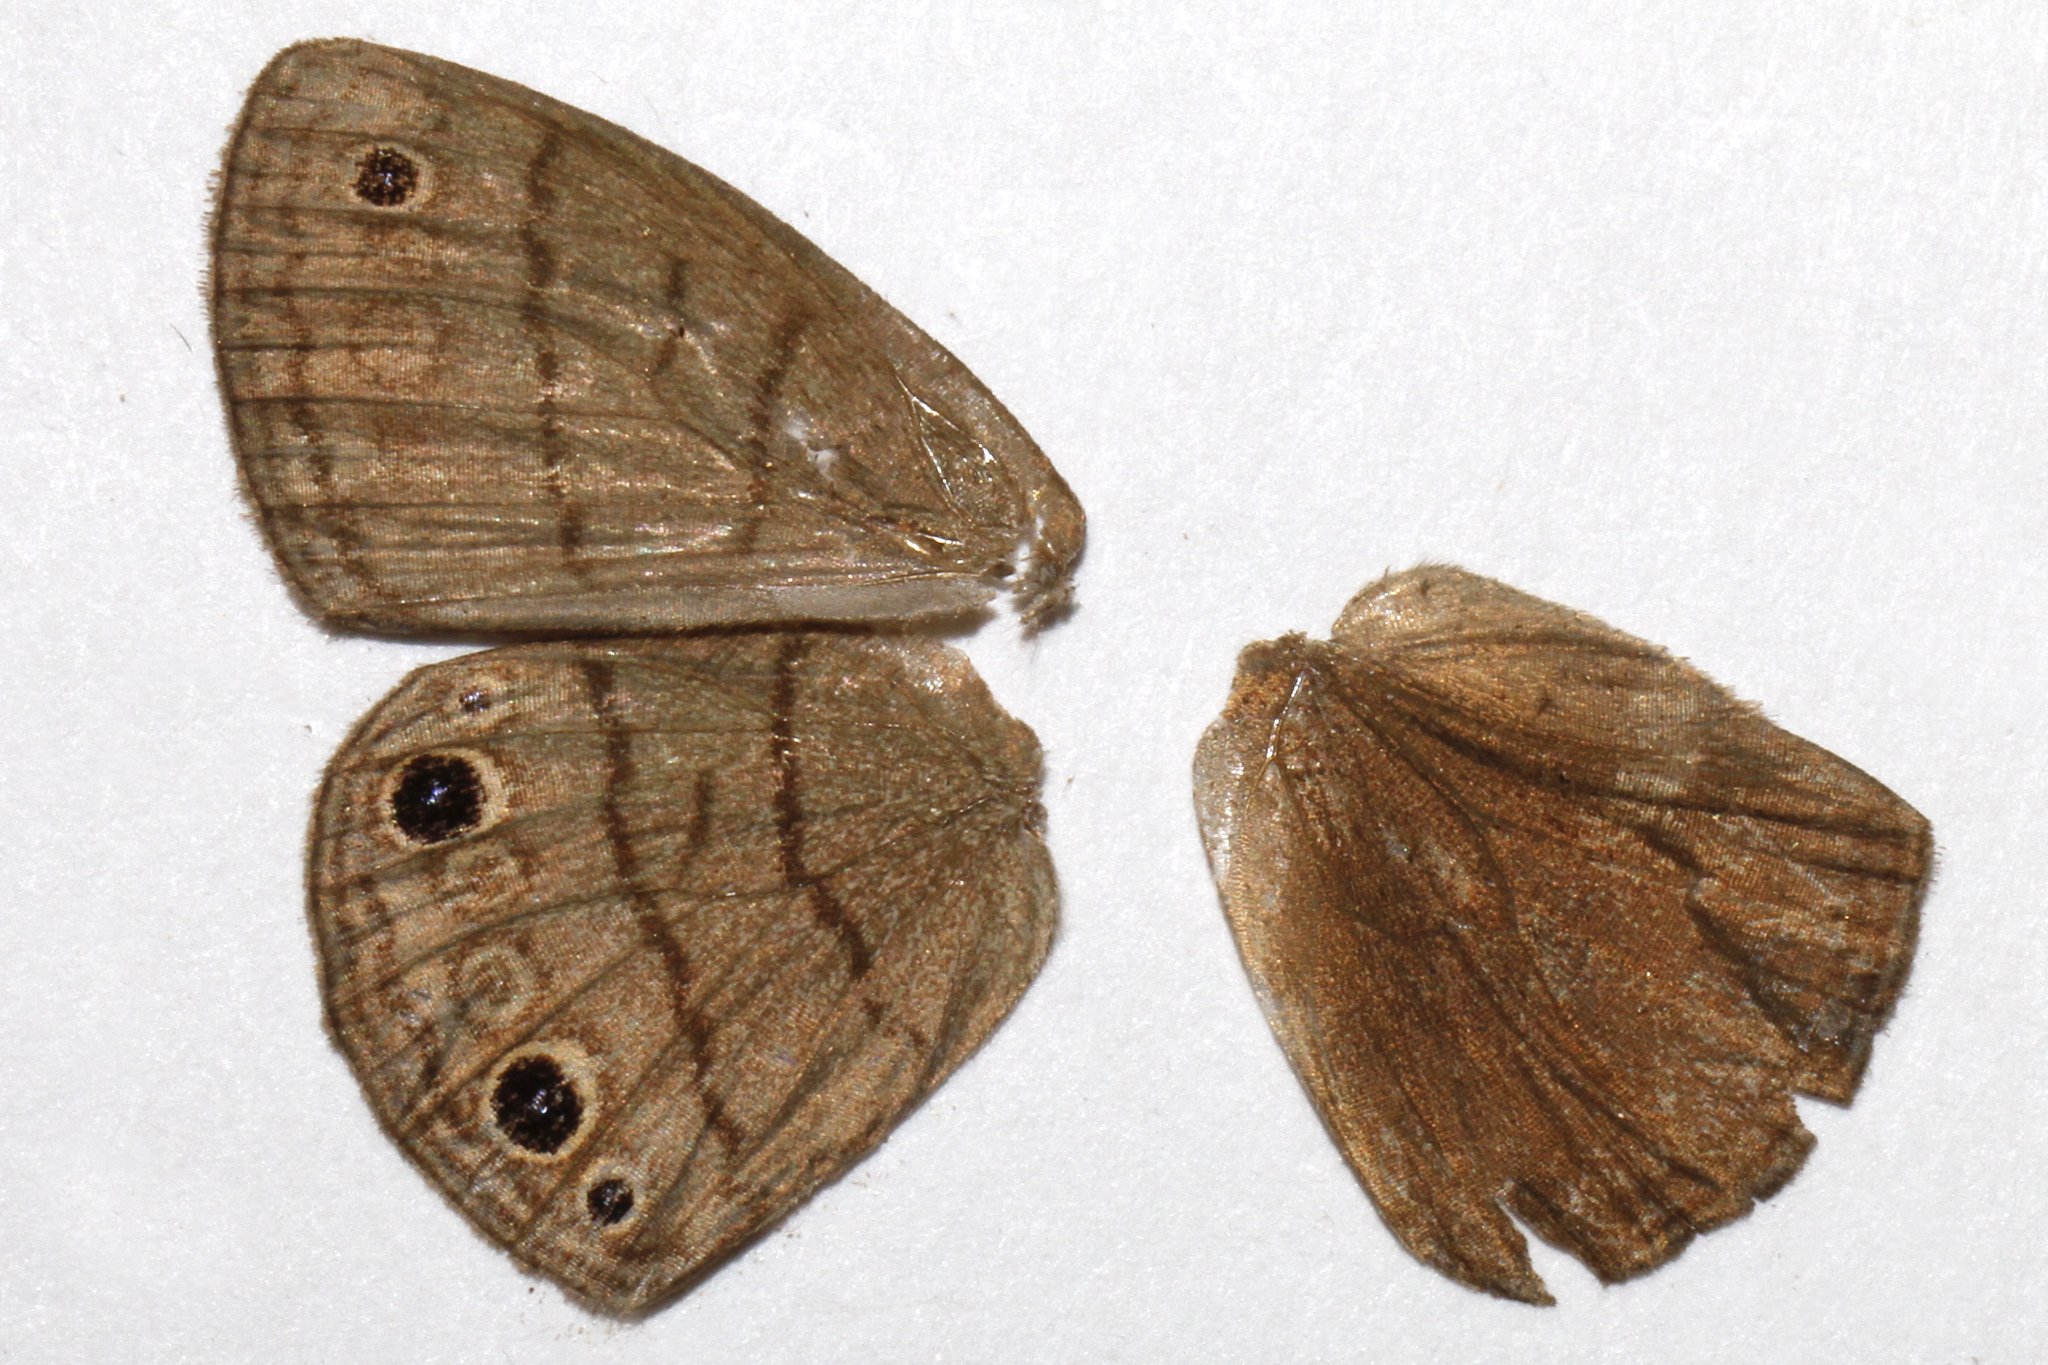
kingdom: Animalia
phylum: Arthropoda
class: Insecta
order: Lepidoptera
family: Nymphalidae
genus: Hermeuptychia
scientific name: Hermeuptychia hermes
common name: Hermes satyr
